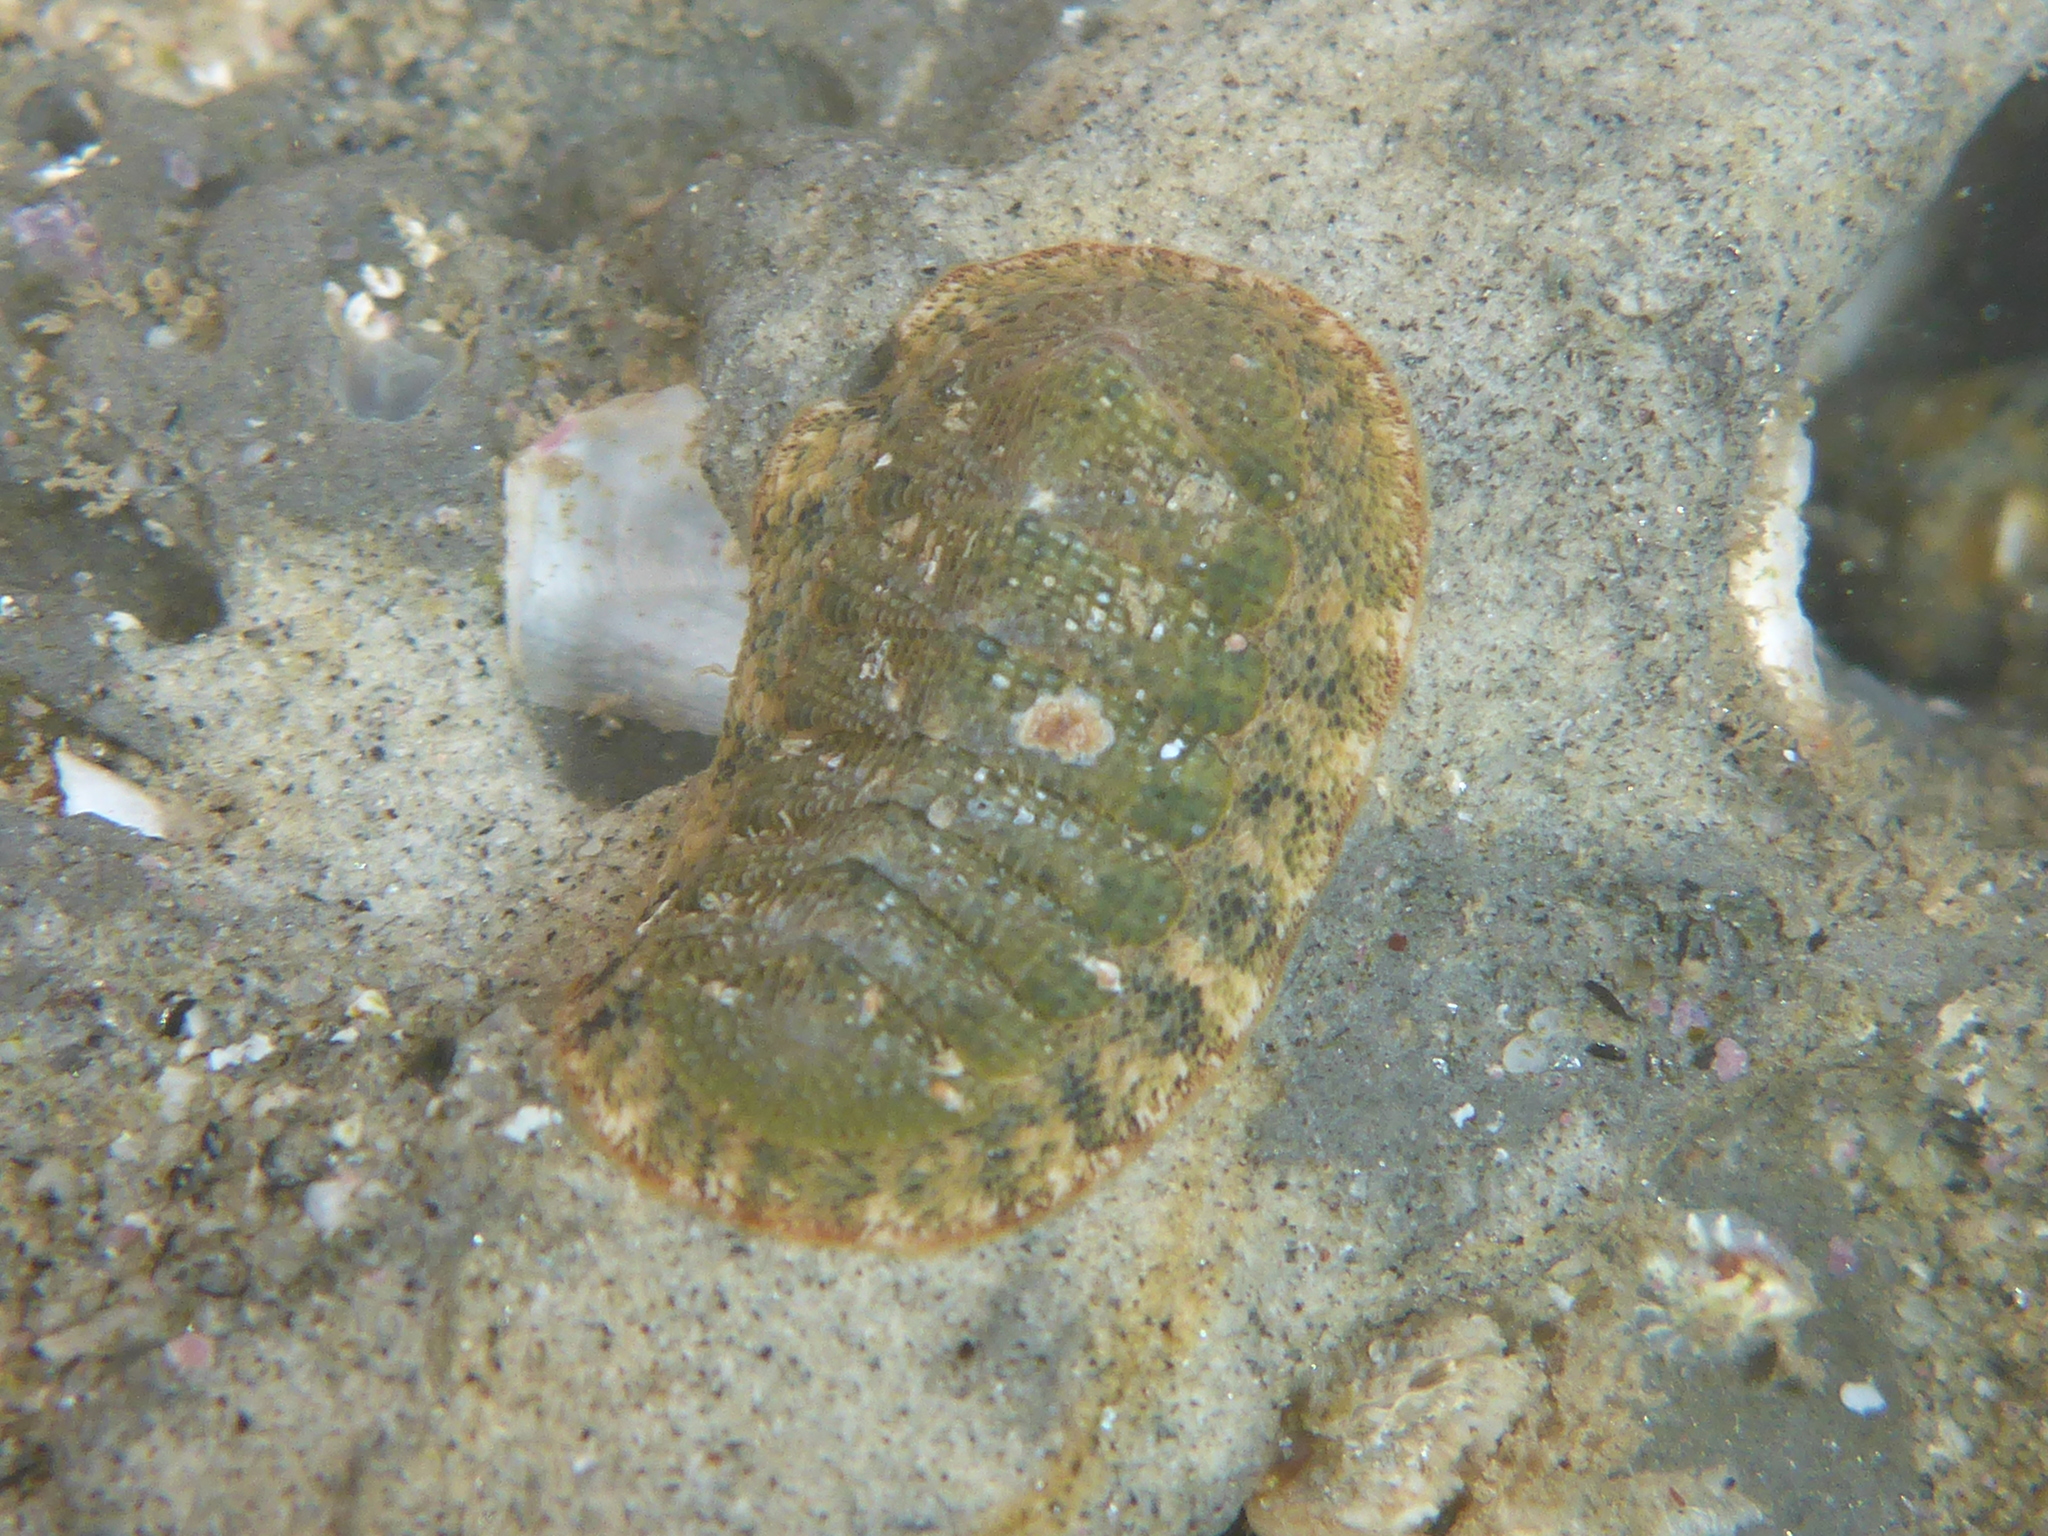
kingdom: Animalia
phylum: Mollusca
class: Polyplacophora
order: Chitonida
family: Ischnochitonidae
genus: Lepidozona
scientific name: Lepidozona pectinulata
